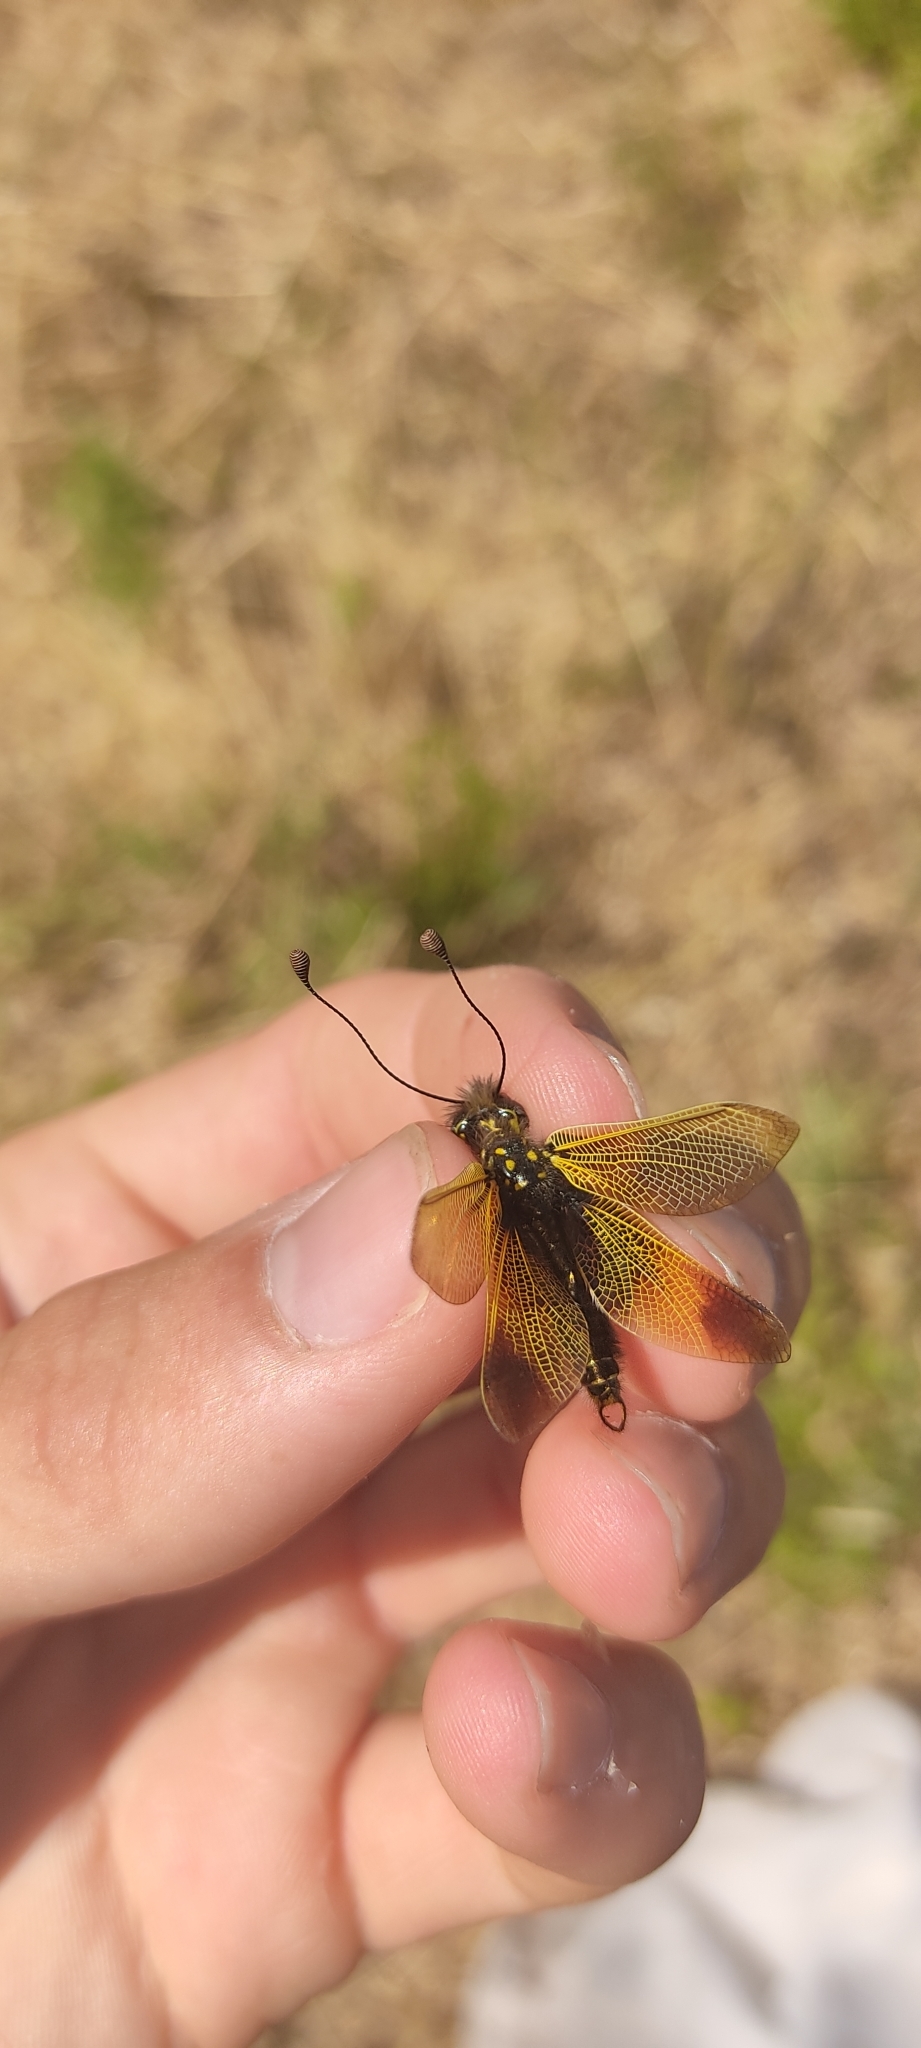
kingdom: Animalia
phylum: Arthropoda
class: Insecta
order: Neuroptera
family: Ascalaphidae
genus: Libelloides
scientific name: Libelloides ictericus
